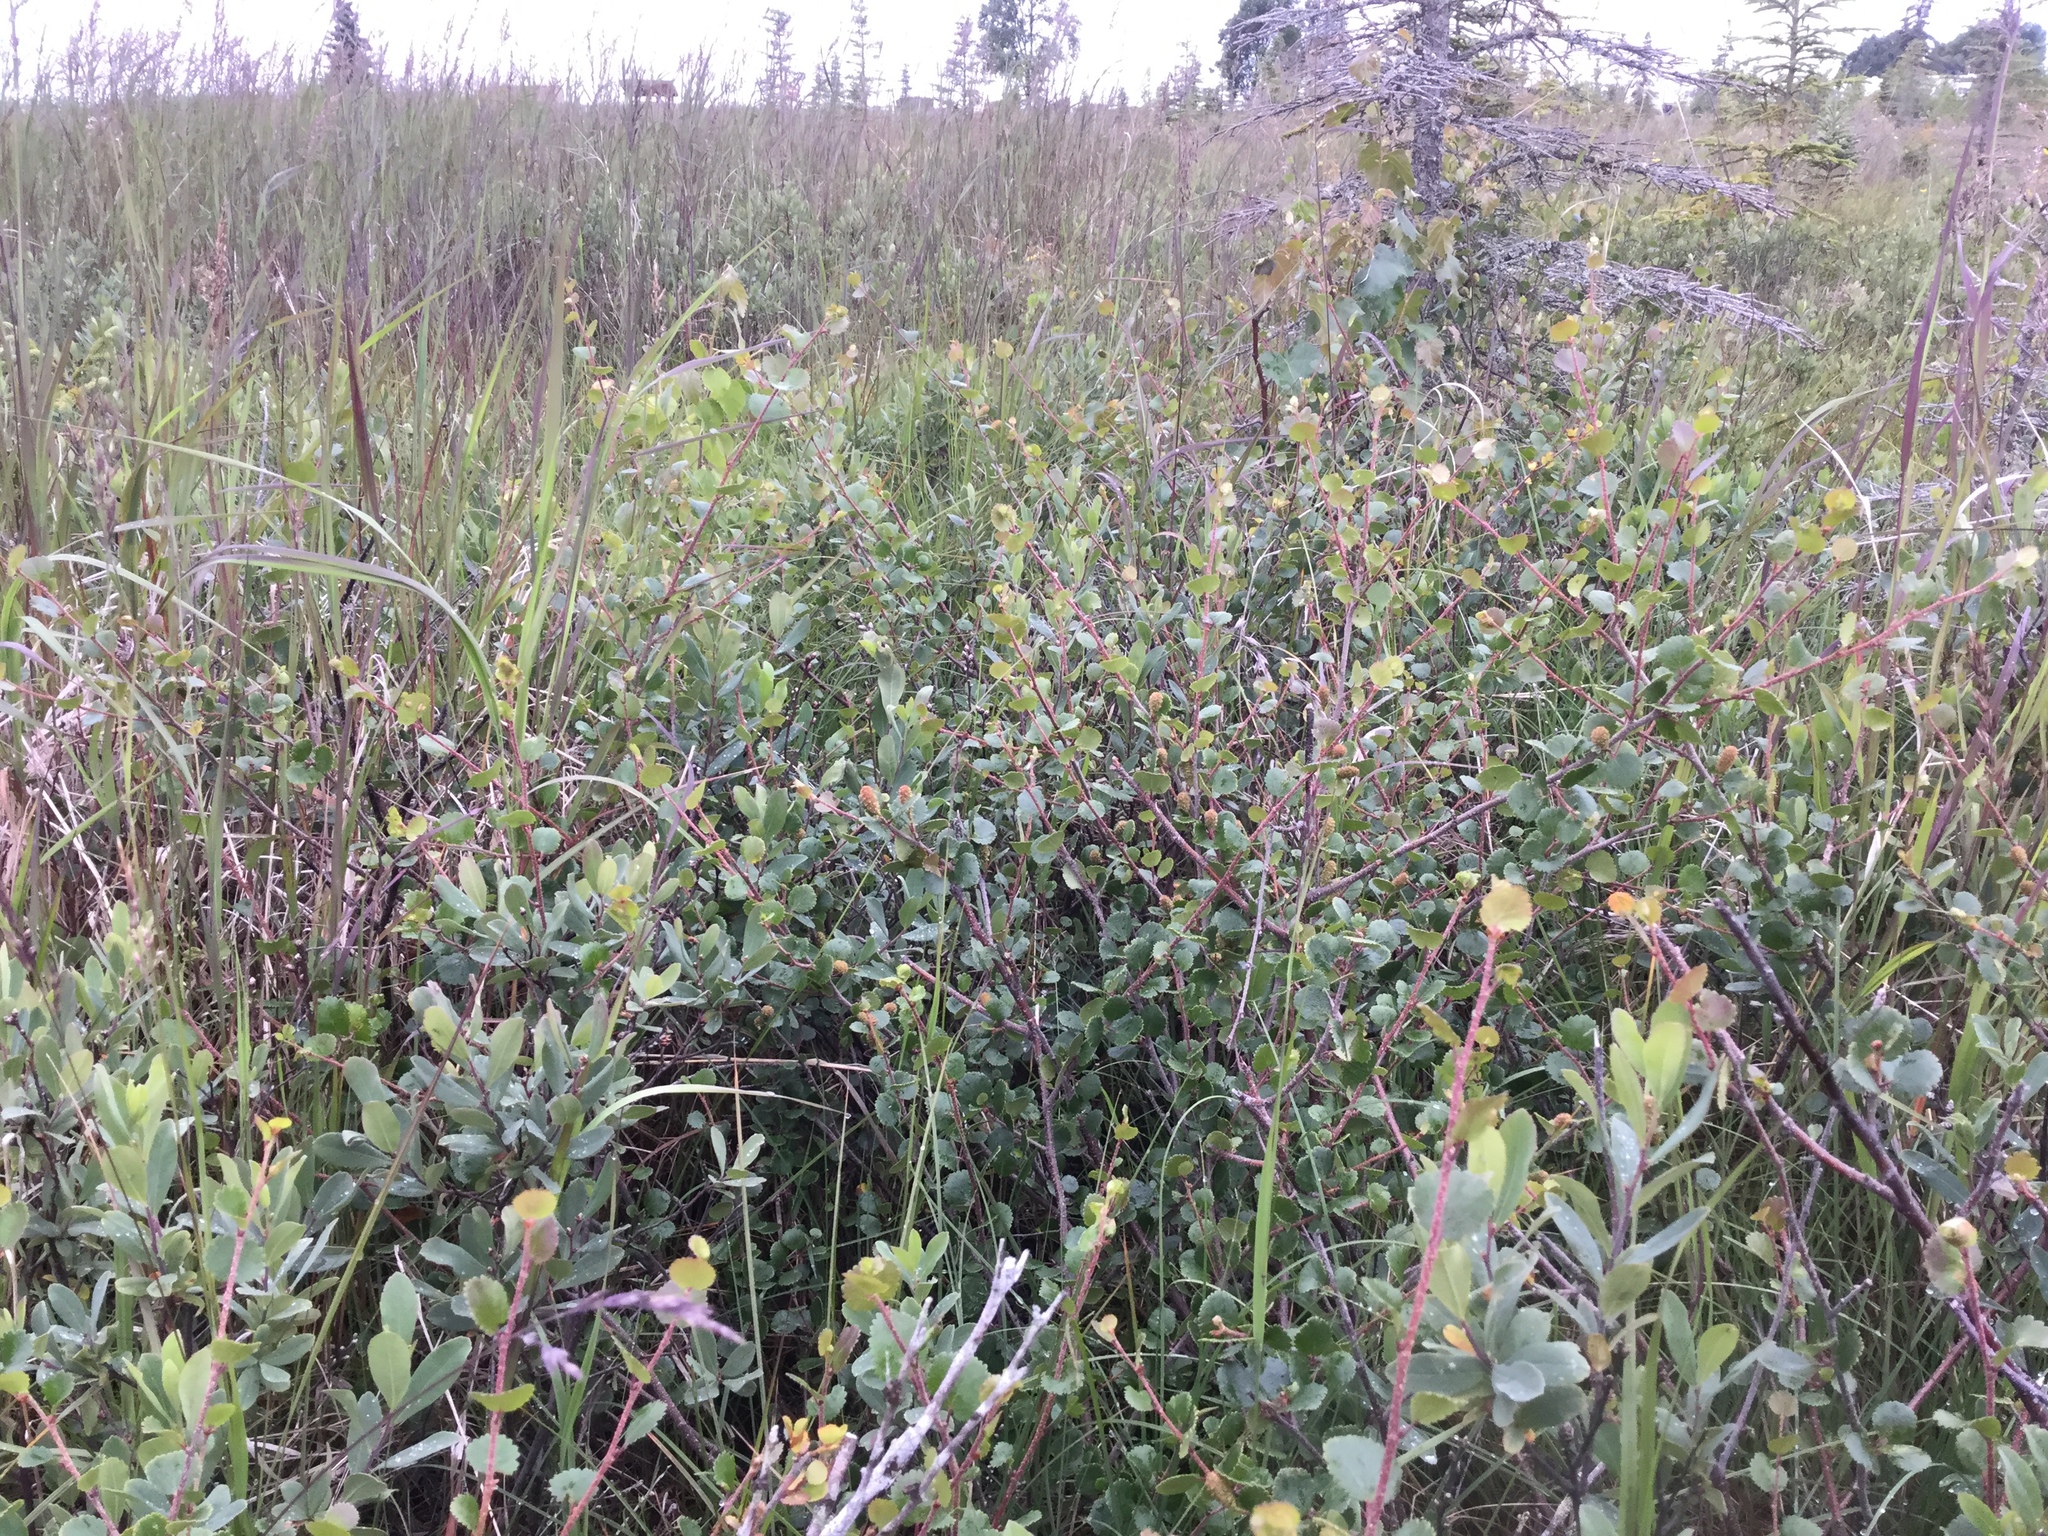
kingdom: Plantae
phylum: Tracheophyta
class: Magnoliopsida
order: Fagales
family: Betulaceae
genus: Betula
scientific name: Betula nana
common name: Arctic dwarf birch
